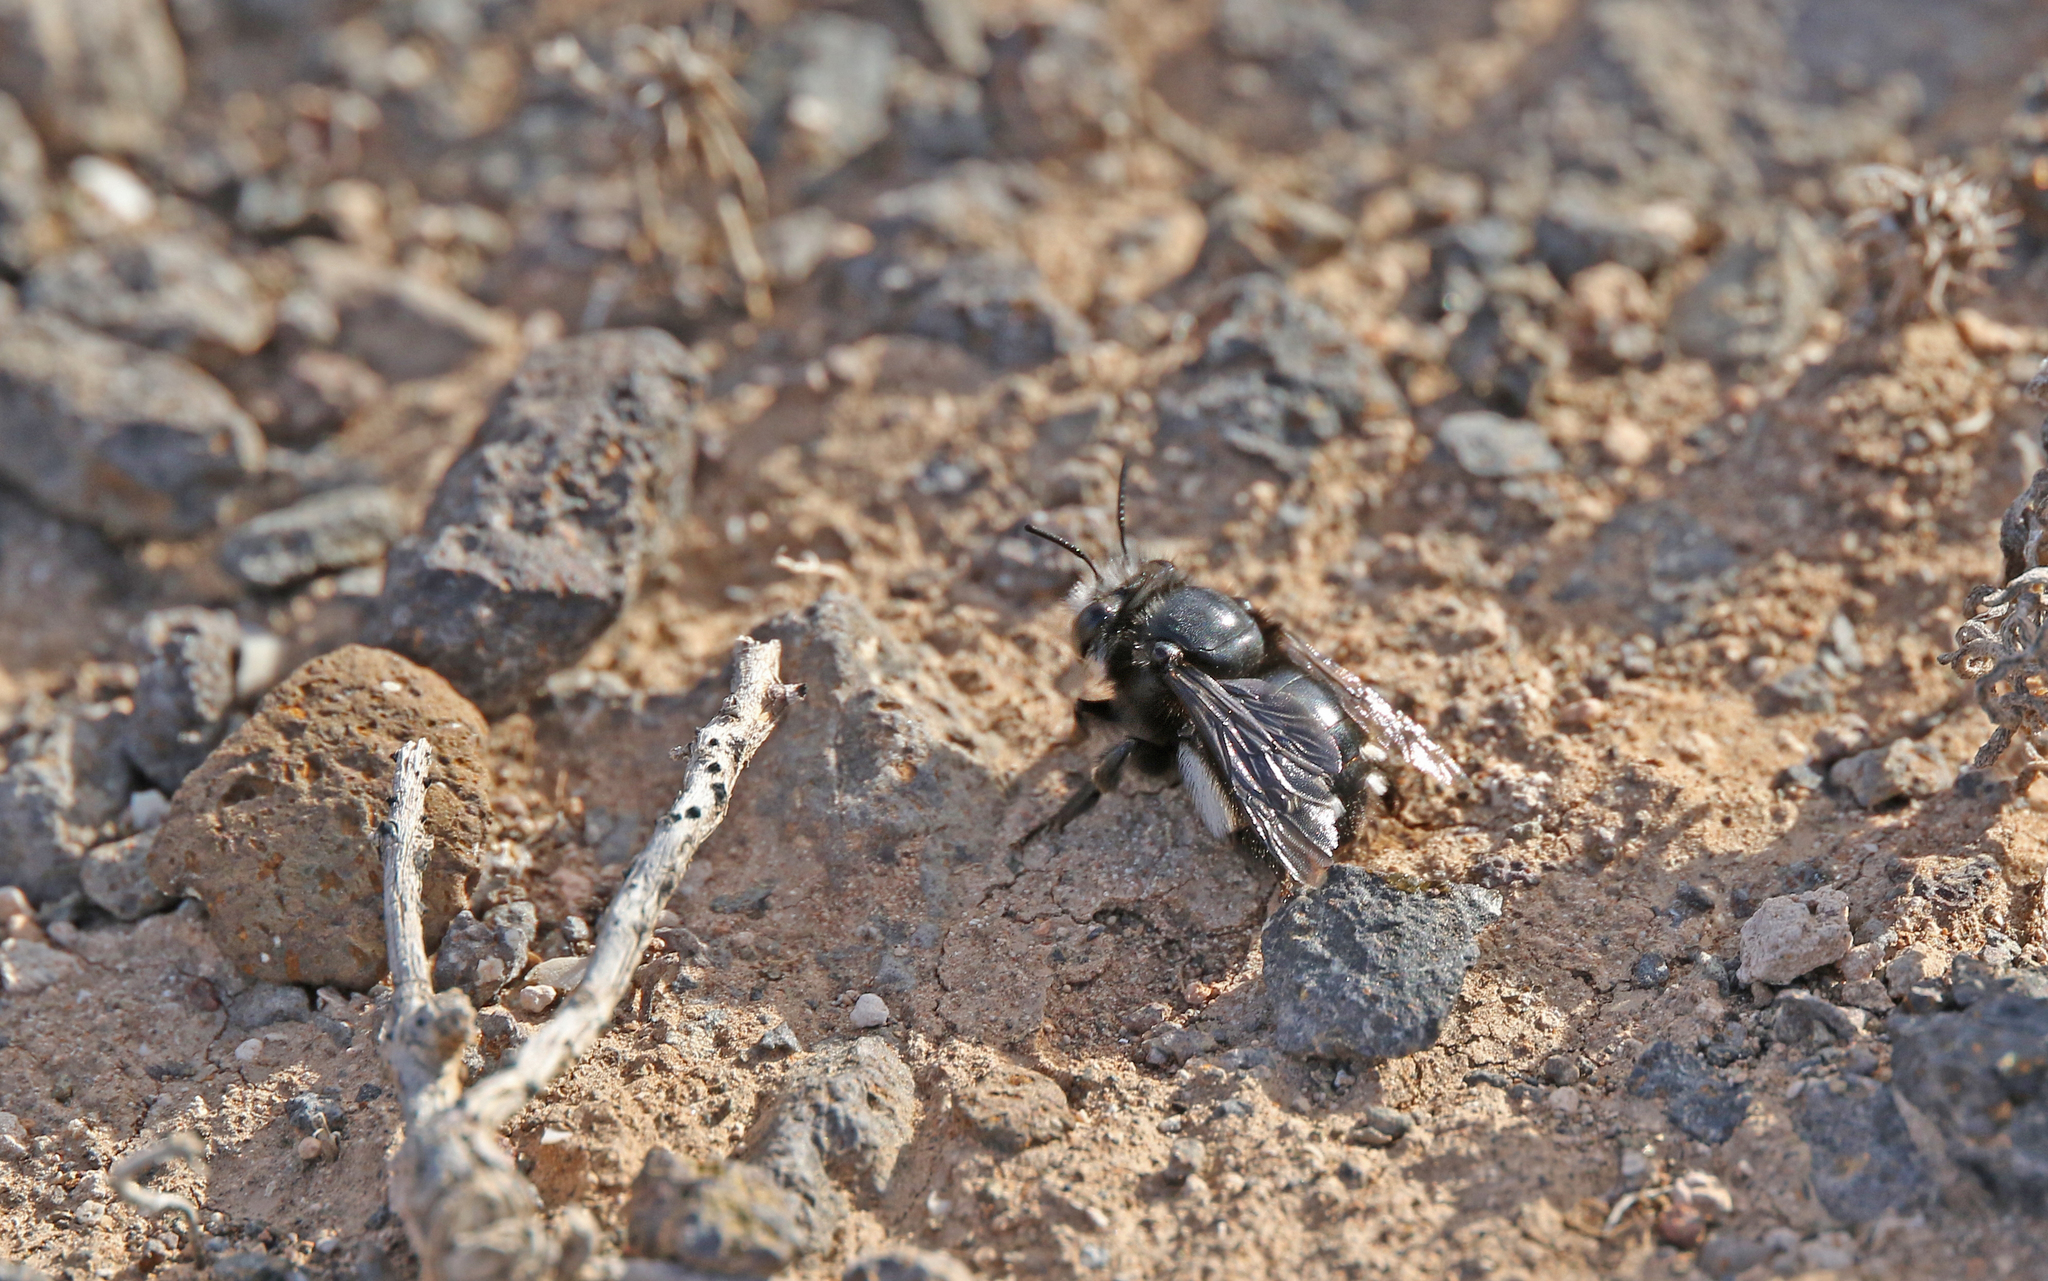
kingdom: Animalia
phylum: Arthropoda
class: Insecta
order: Hymenoptera
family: Apidae
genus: Anthophora
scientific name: Anthophora alluaudi
